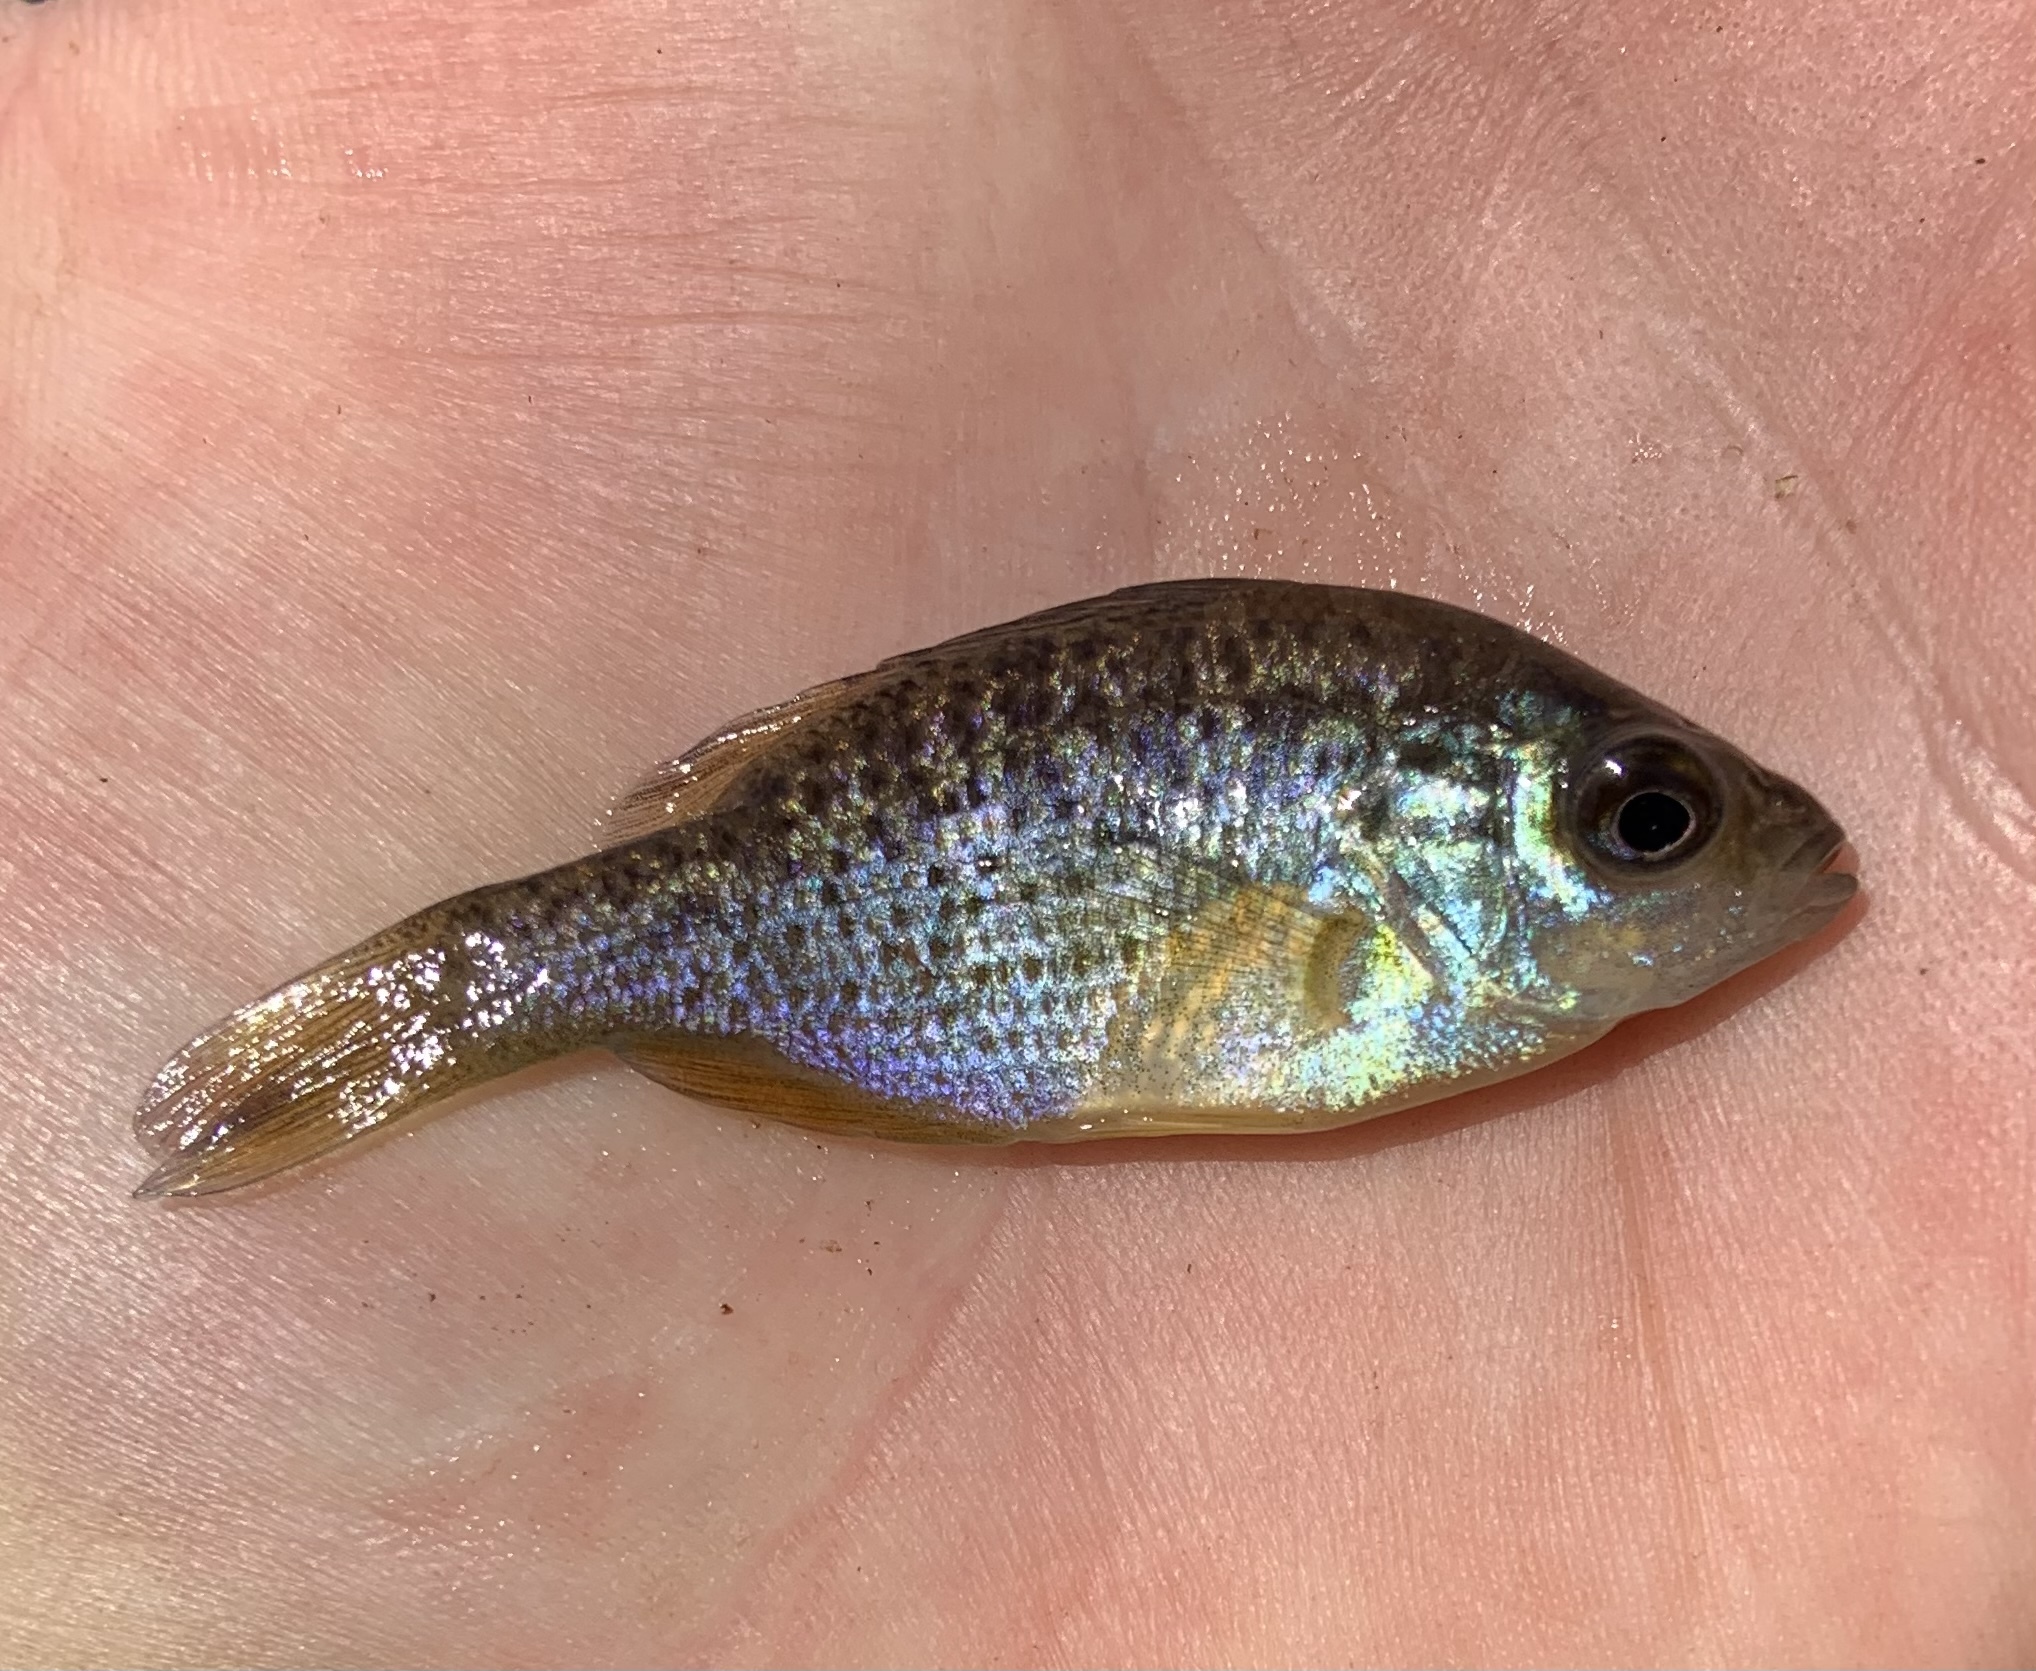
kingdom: Animalia
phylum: Chordata
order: Perciformes
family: Centrarchidae
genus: Lepomis
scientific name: Lepomis gibbosus
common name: Pumpkinseed
